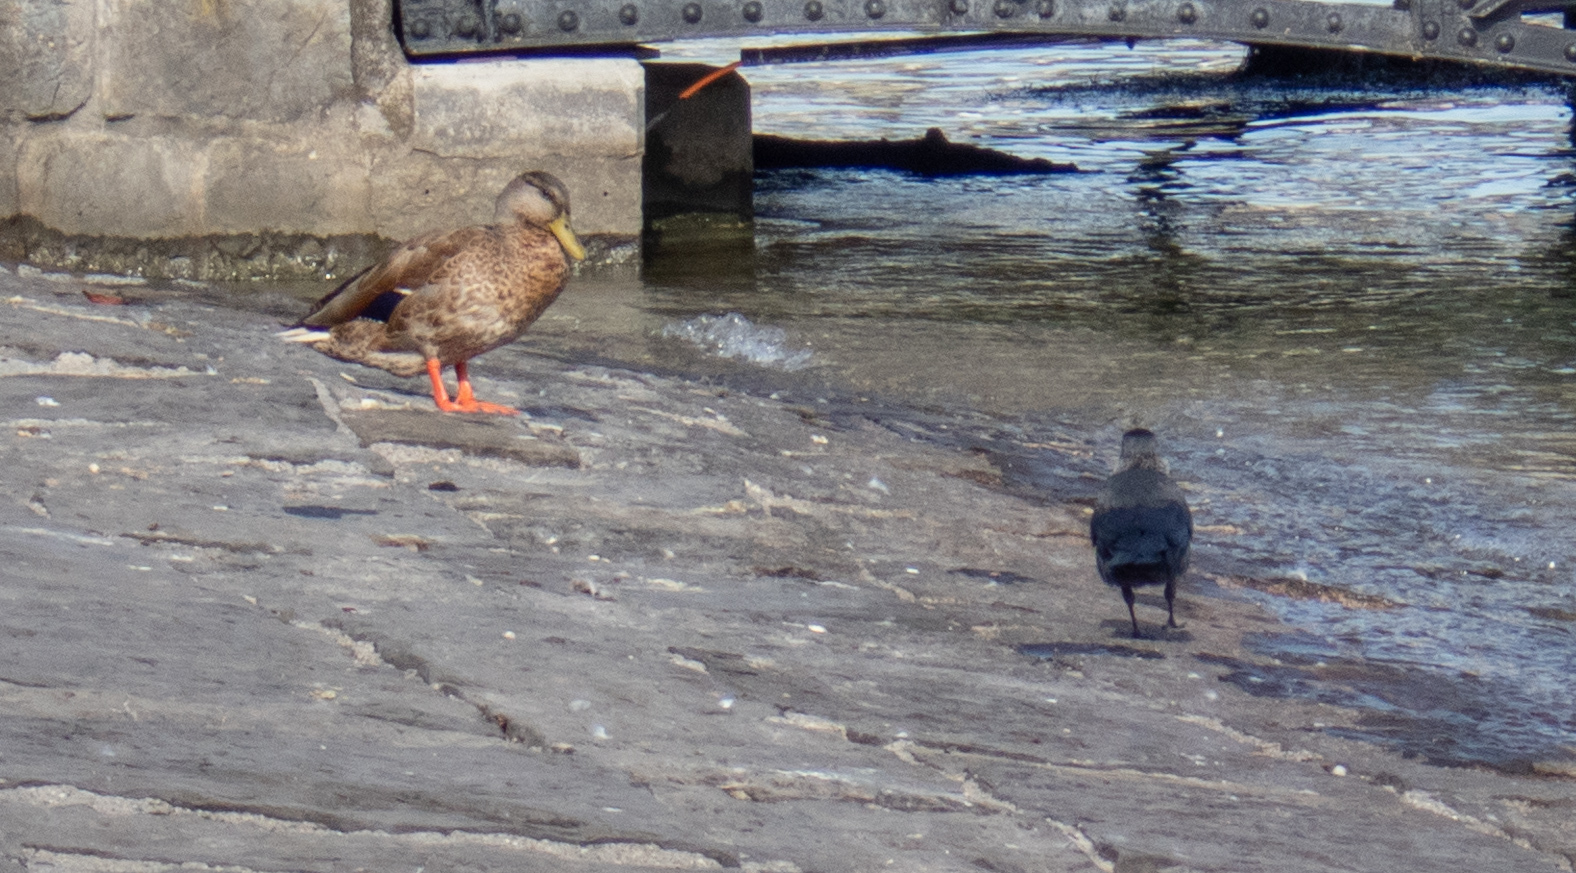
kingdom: Animalia
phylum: Chordata
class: Aves
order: Passeriformes
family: Corvidae
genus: Coloeus
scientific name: Coloeus monedula
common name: Western jackdaw
